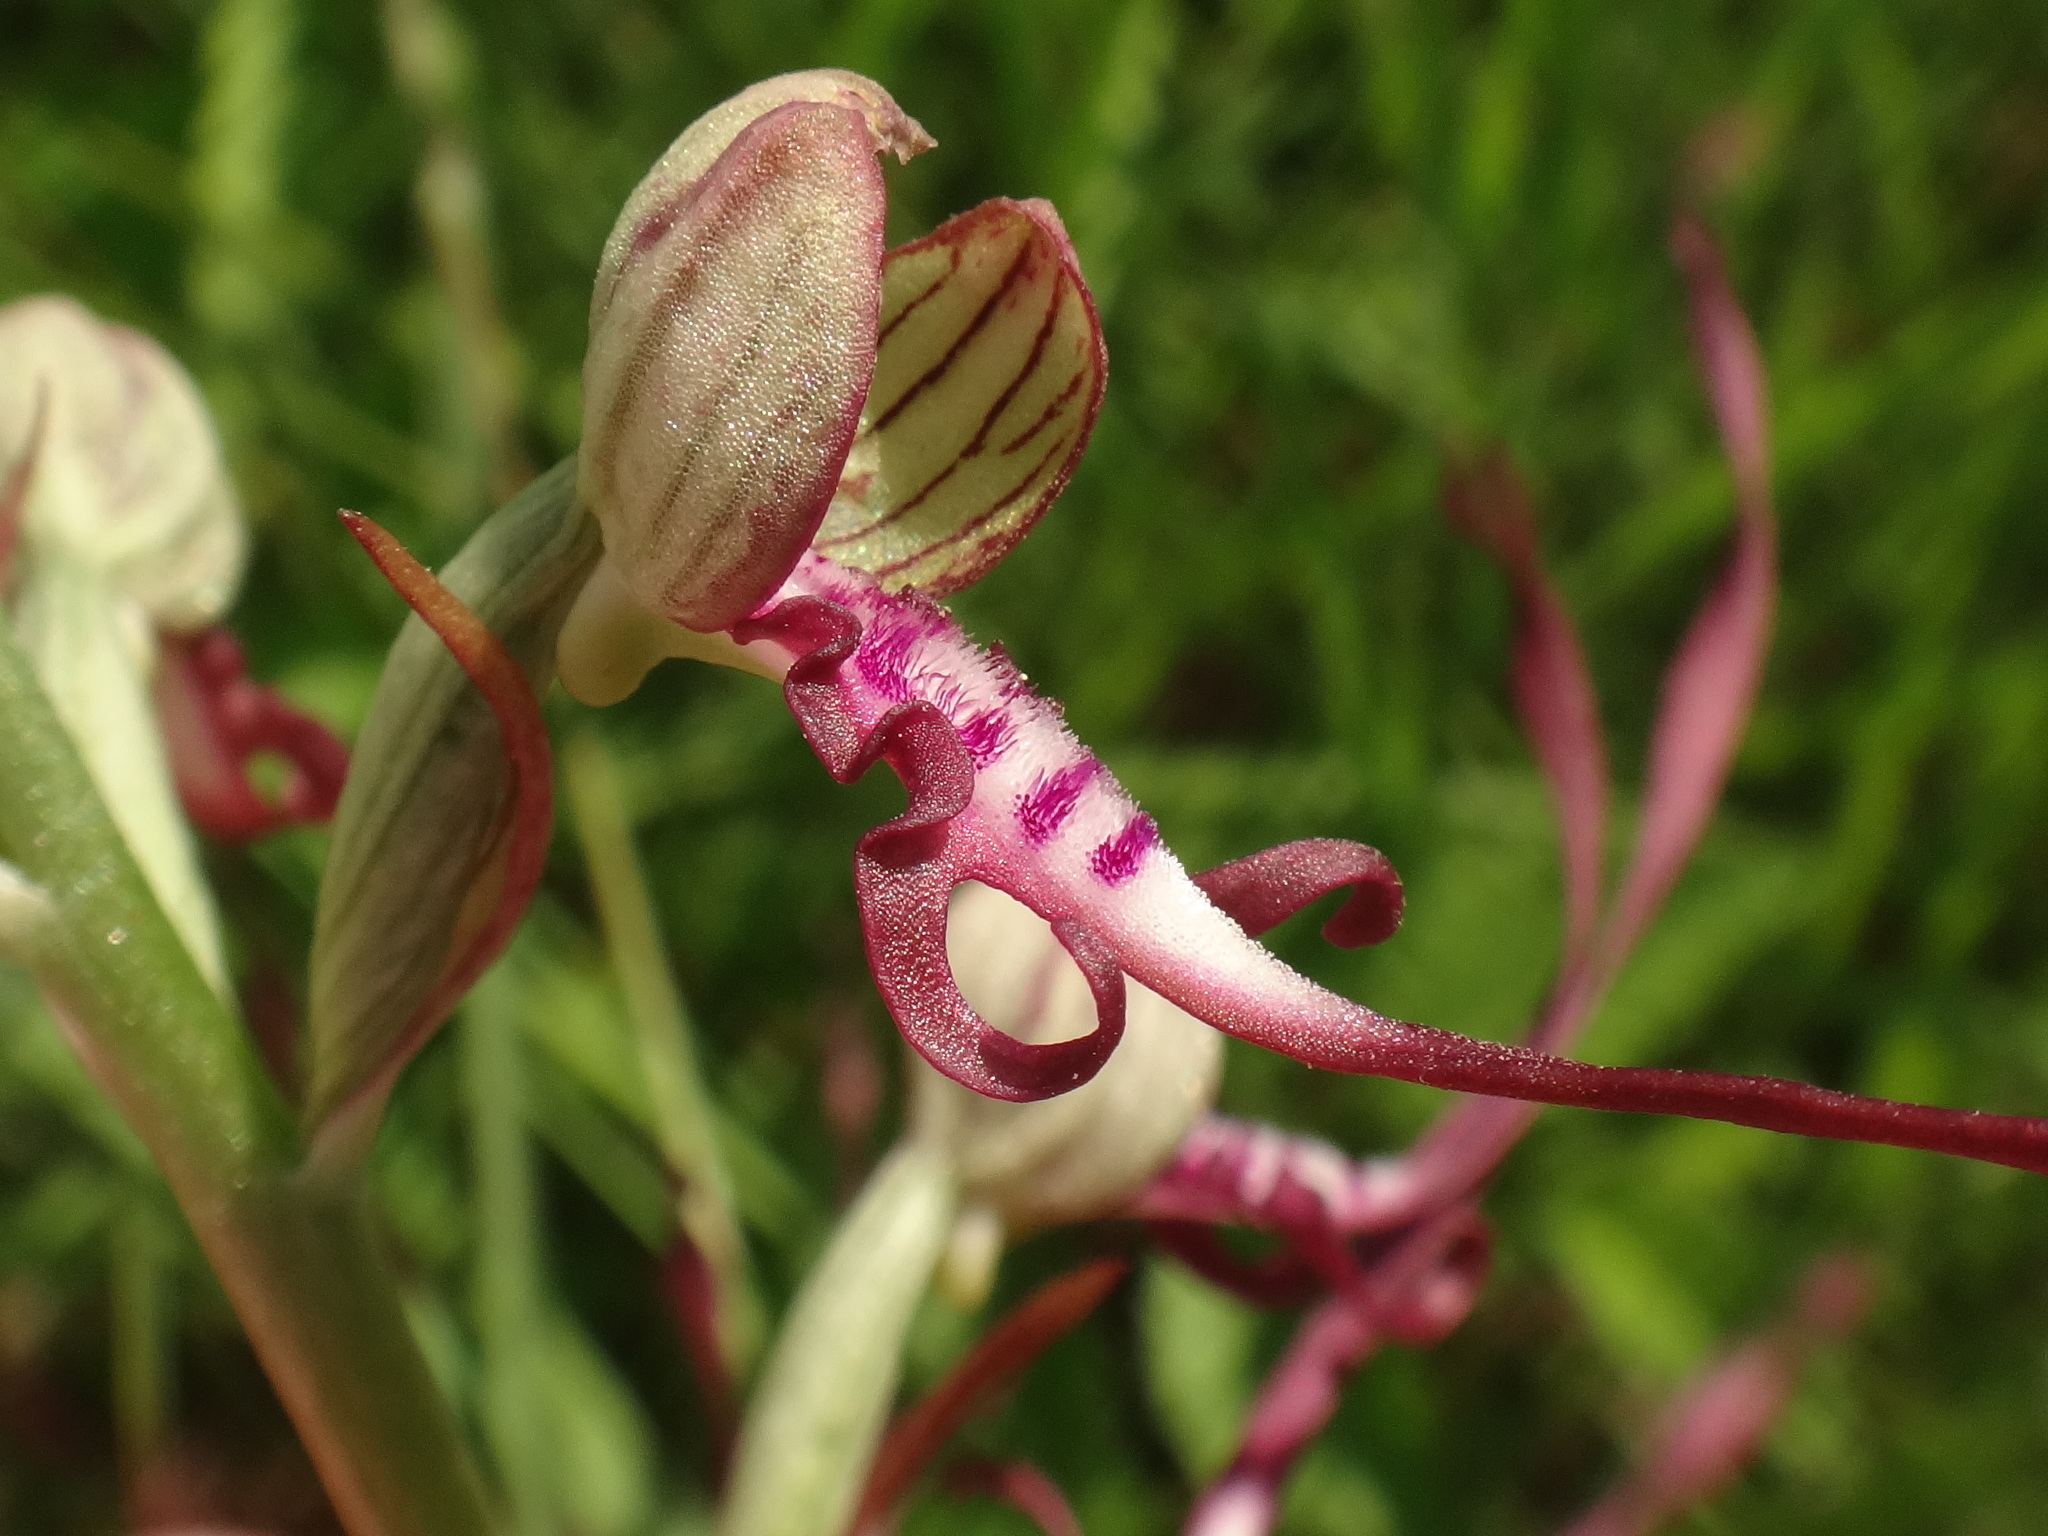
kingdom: Plantae
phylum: Tracheophyta
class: Liliopsida
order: Asparagales
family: Orchidaceae
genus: Himantoglossum
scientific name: Himantoglossum adriaticum
